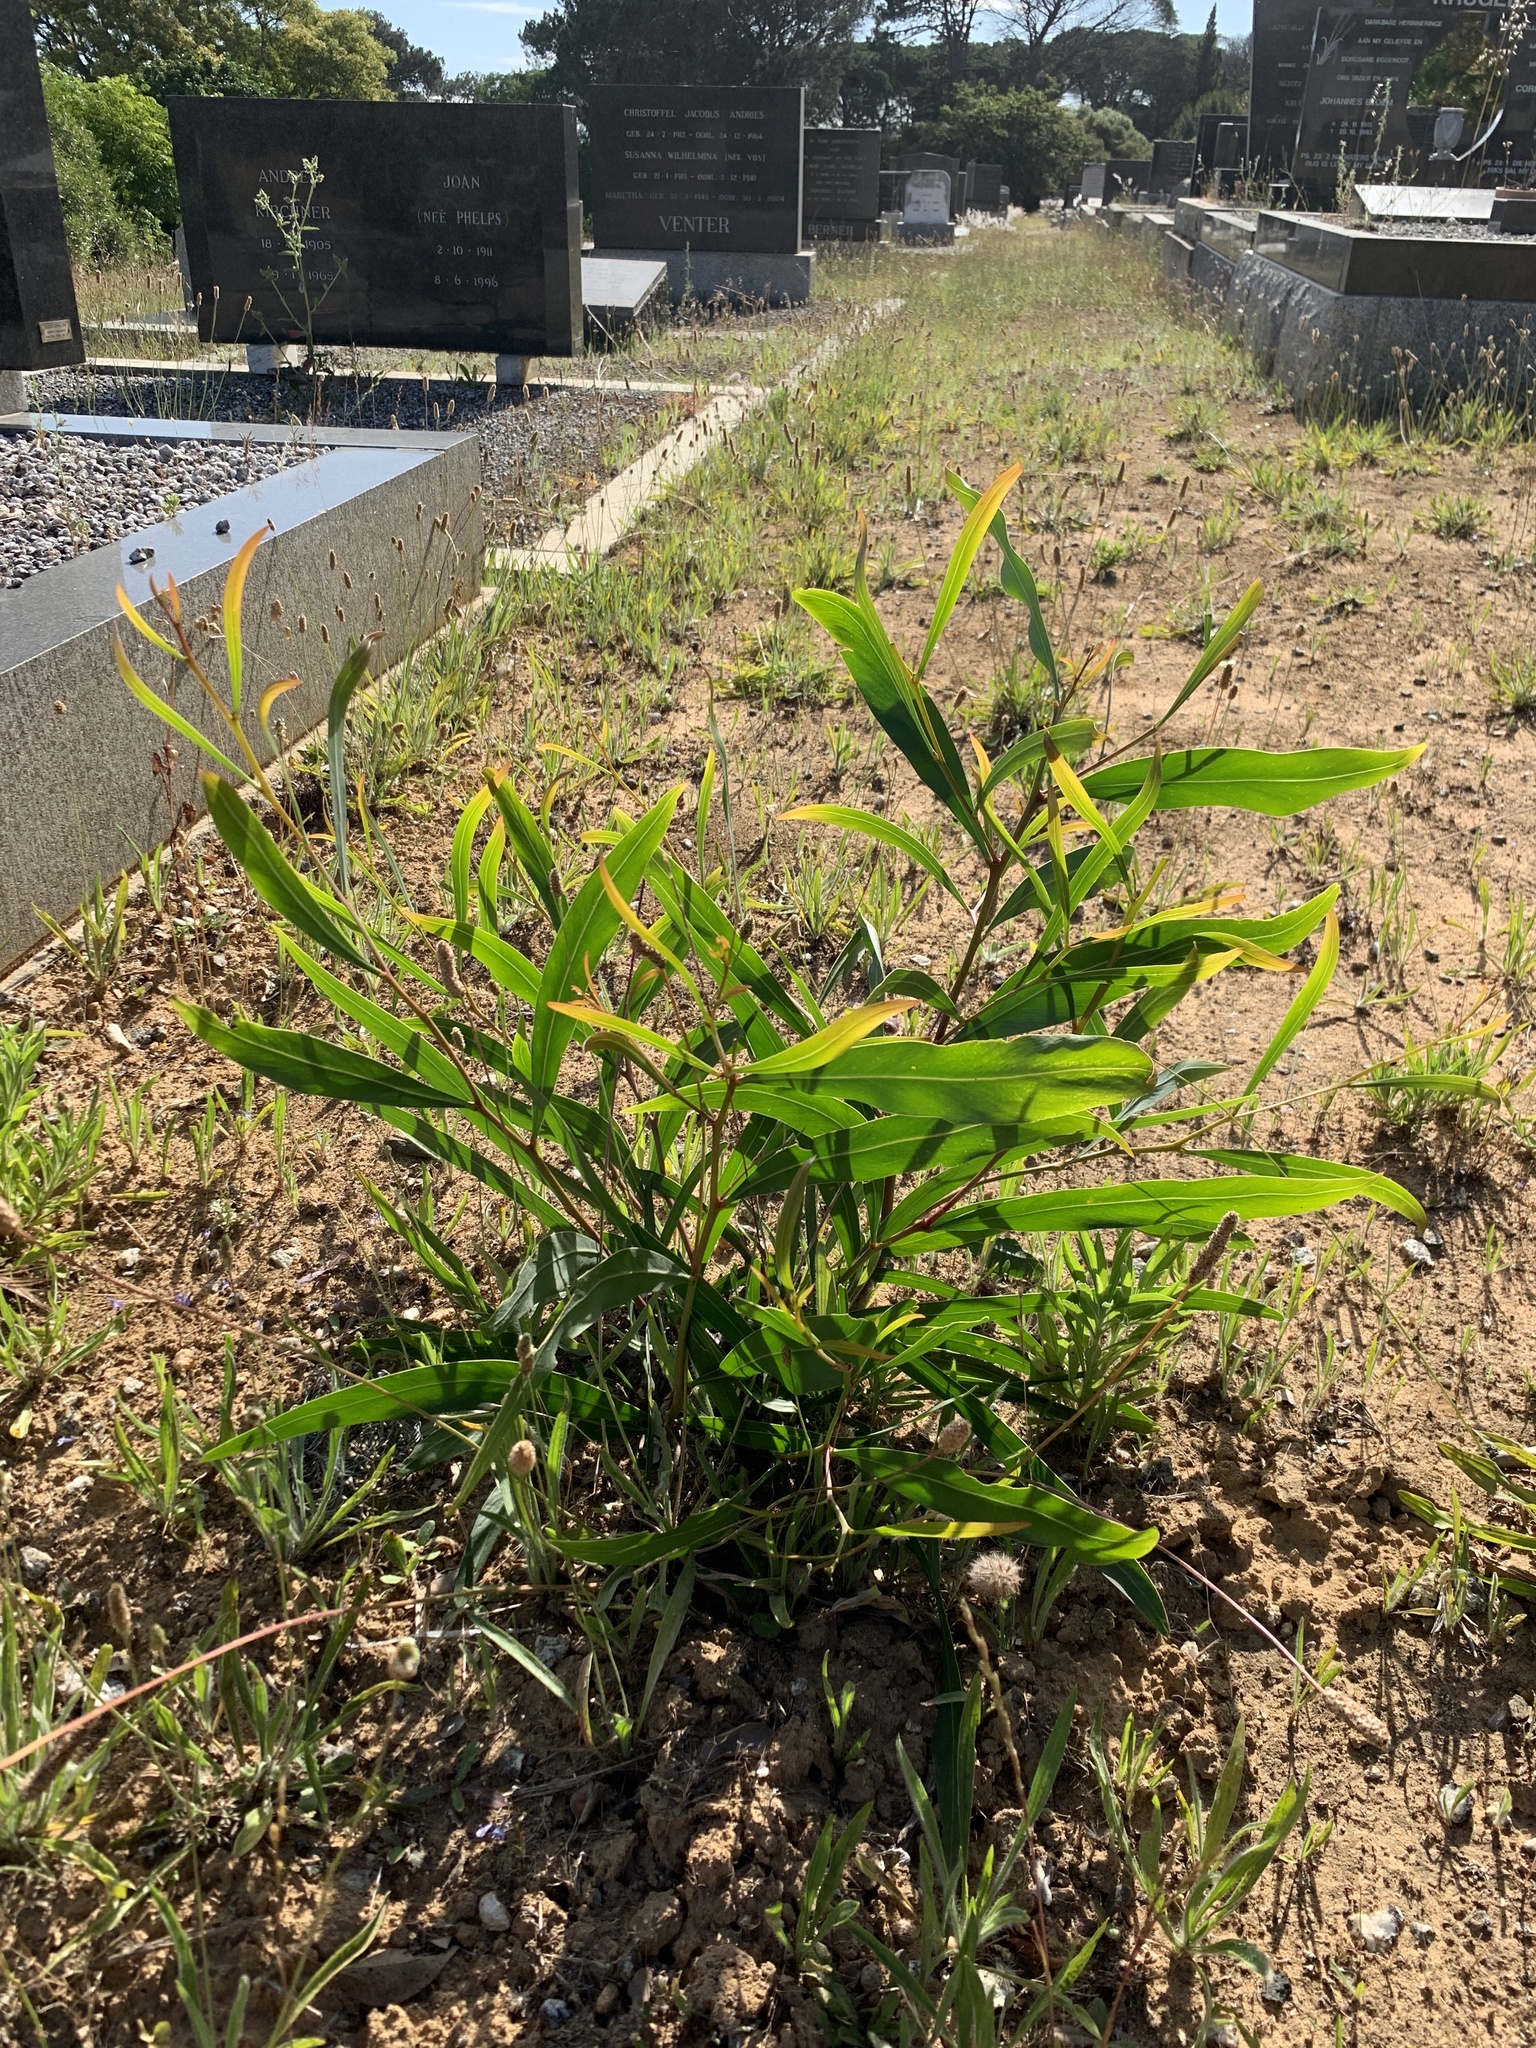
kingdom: Plantae
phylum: Tracheophyta
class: Magnoliopsida
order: Fabales
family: Fabaceae
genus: Acacia
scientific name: Acacia saligna
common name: Orange wattle
